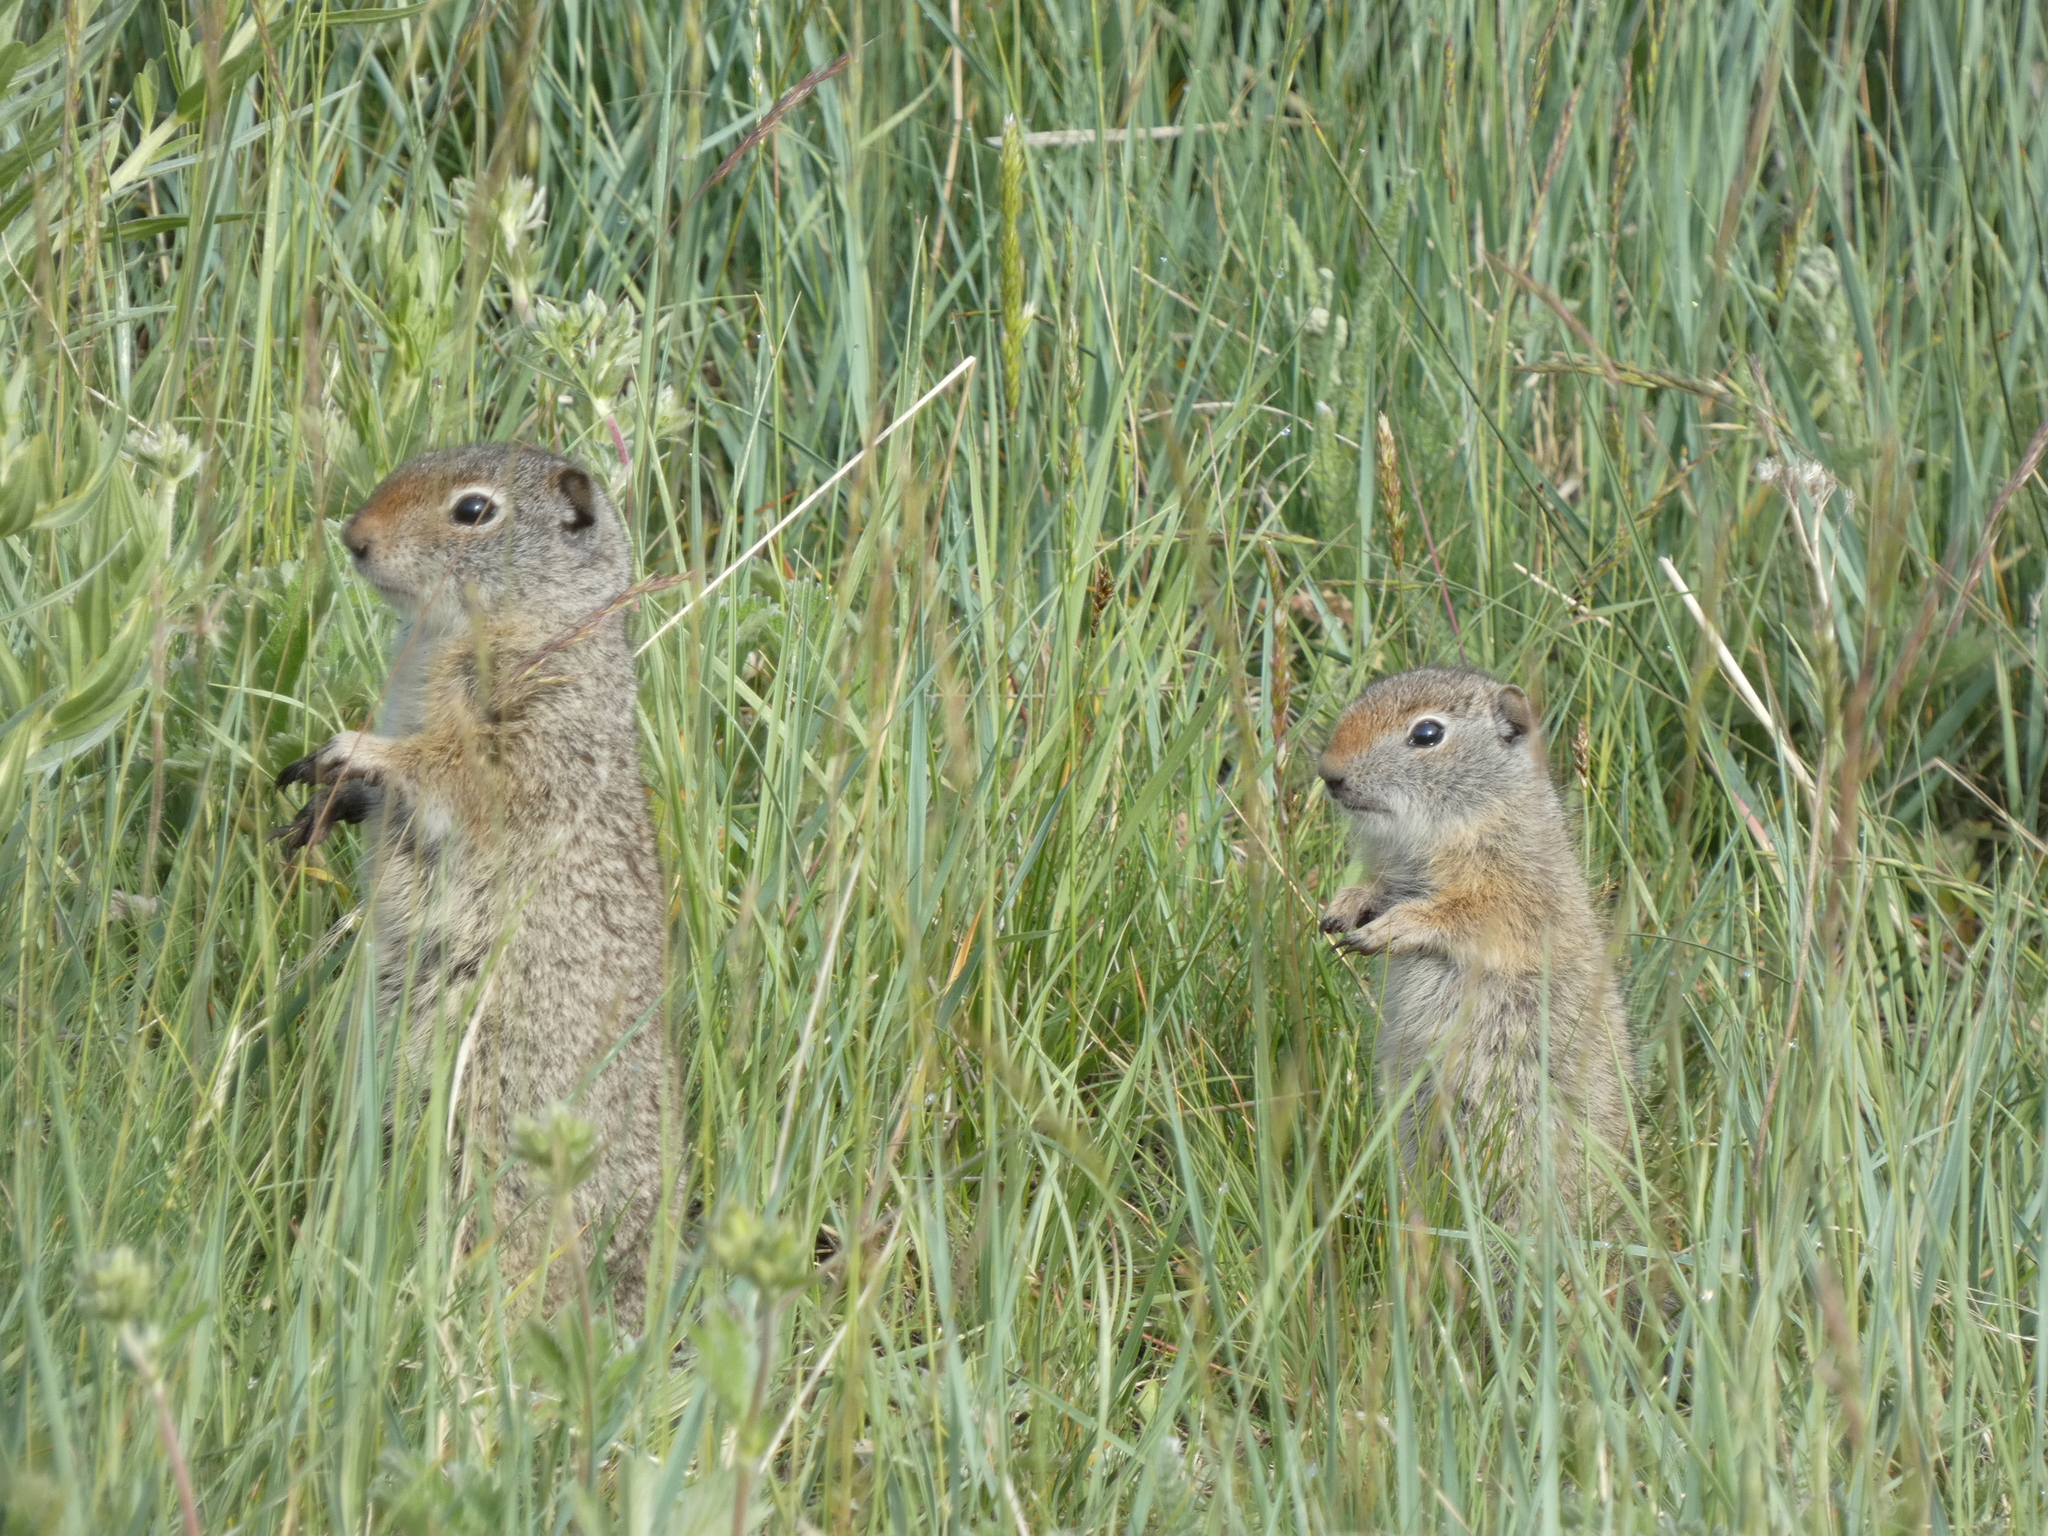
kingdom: Animalia
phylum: Chordata
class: Mammalia
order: Rodentia
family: Sciuridae
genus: Urocitellus
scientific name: Urocitellus armatus
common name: Uinta ground squirrel
